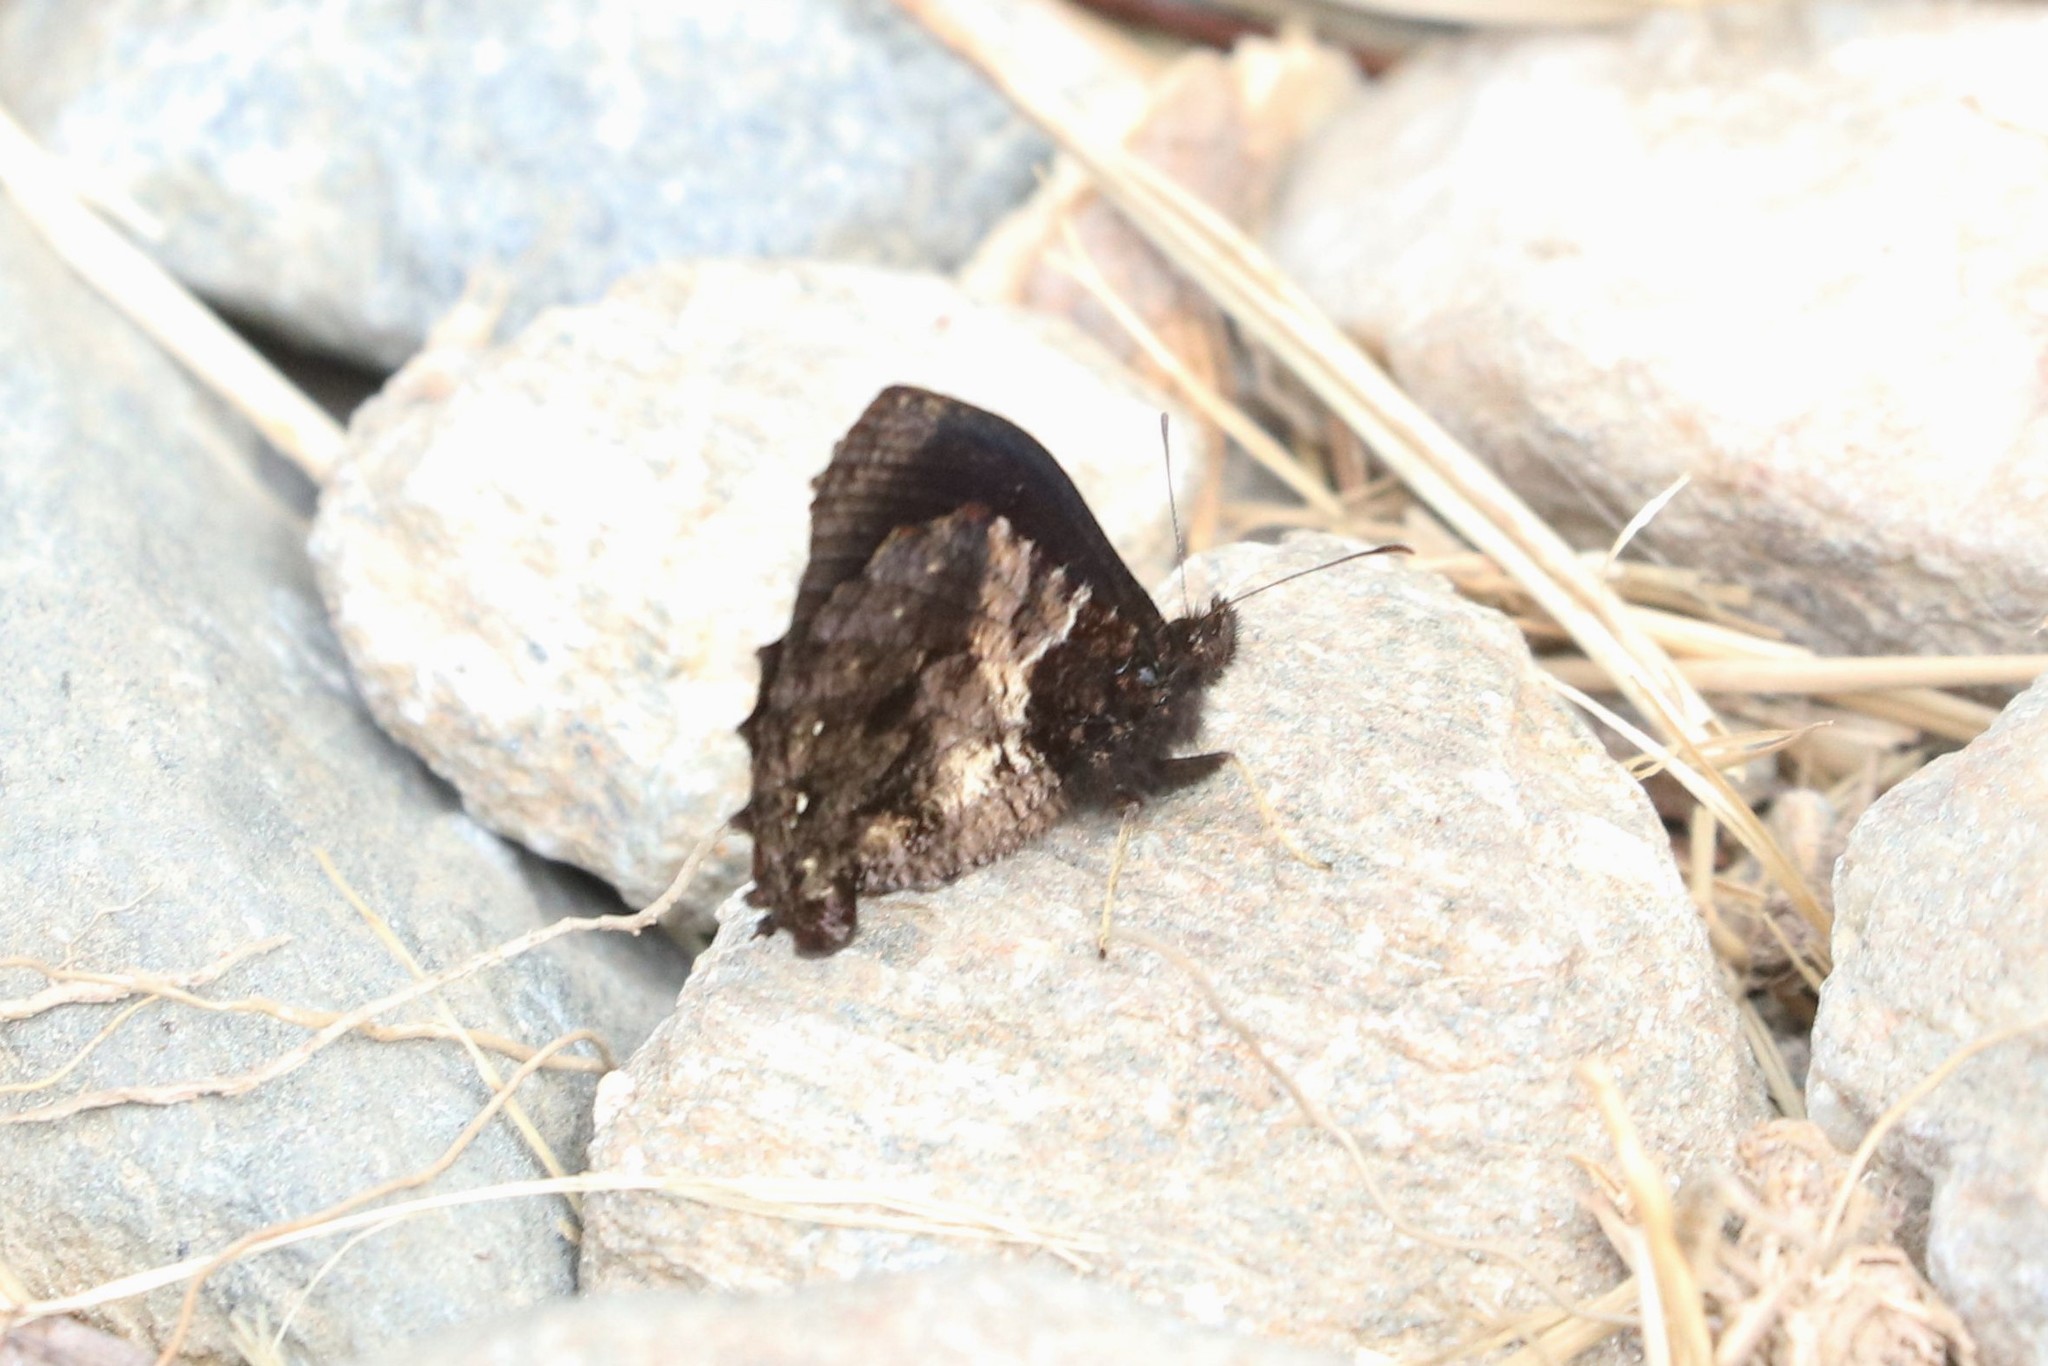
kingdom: Animalia
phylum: Arthropoda
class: Insecta
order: Lepidoptera
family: Nymphalidae
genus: Steroma
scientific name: Steroma polyxo
